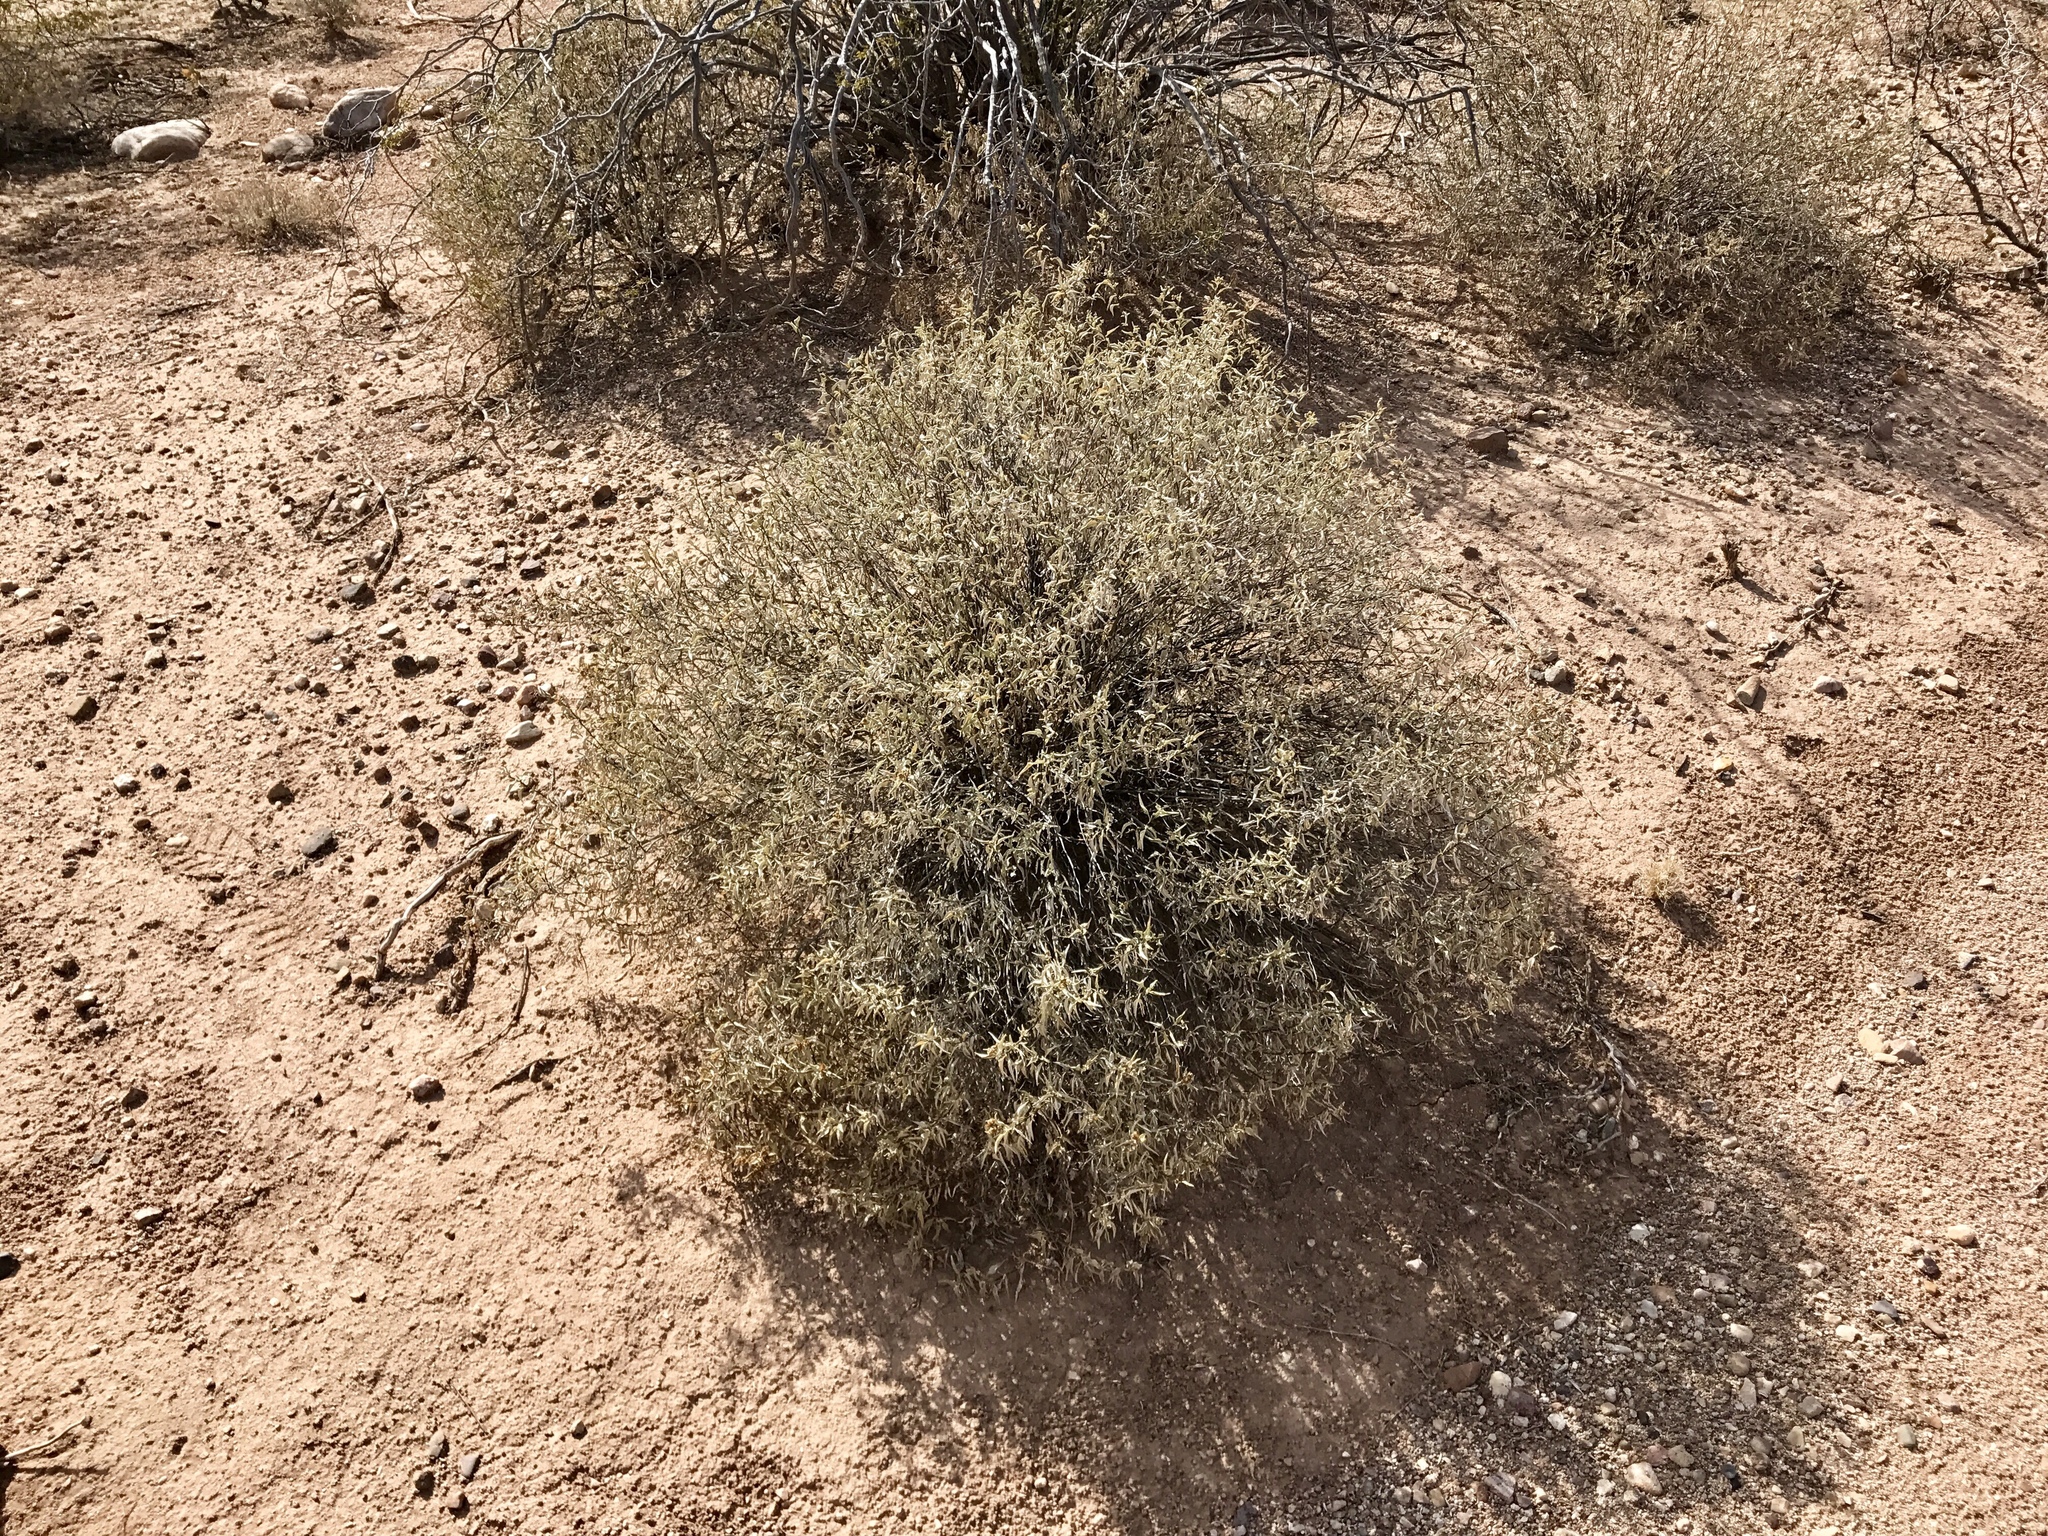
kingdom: Plantae
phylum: Tracheophyta
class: Magnoliopsida
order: Asterales
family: Asteraceae
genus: Ambrosia
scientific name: Ambrosia deltoidea
